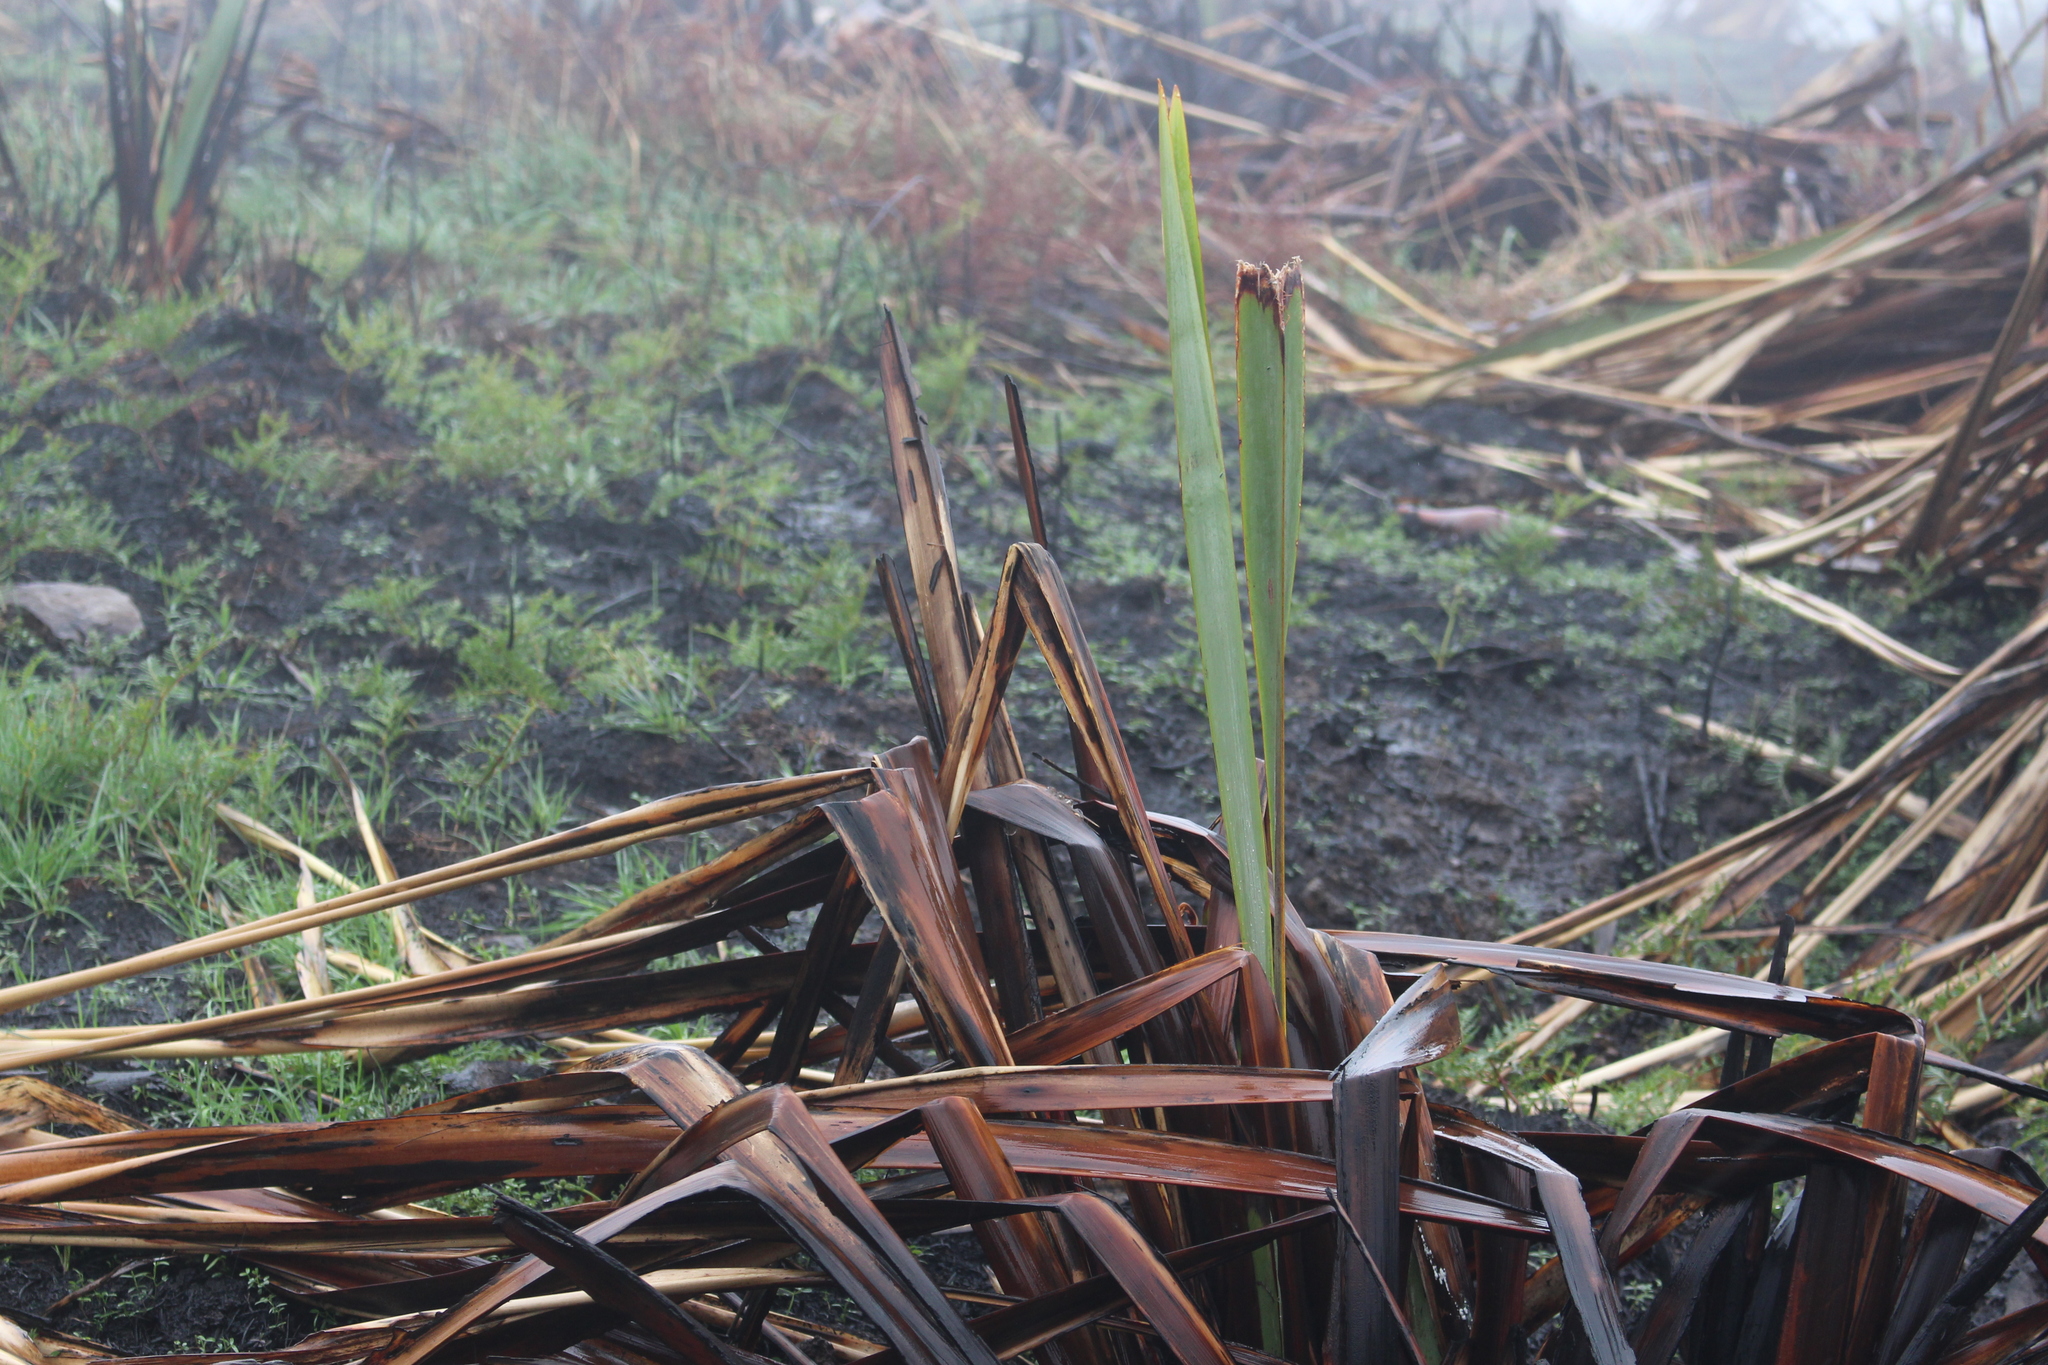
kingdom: Plantae
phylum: Tracheophyta
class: Liliopsida
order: Asparagales
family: Asphodelaceae
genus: Phormium
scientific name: Phormium tenax
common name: New zealand flax
